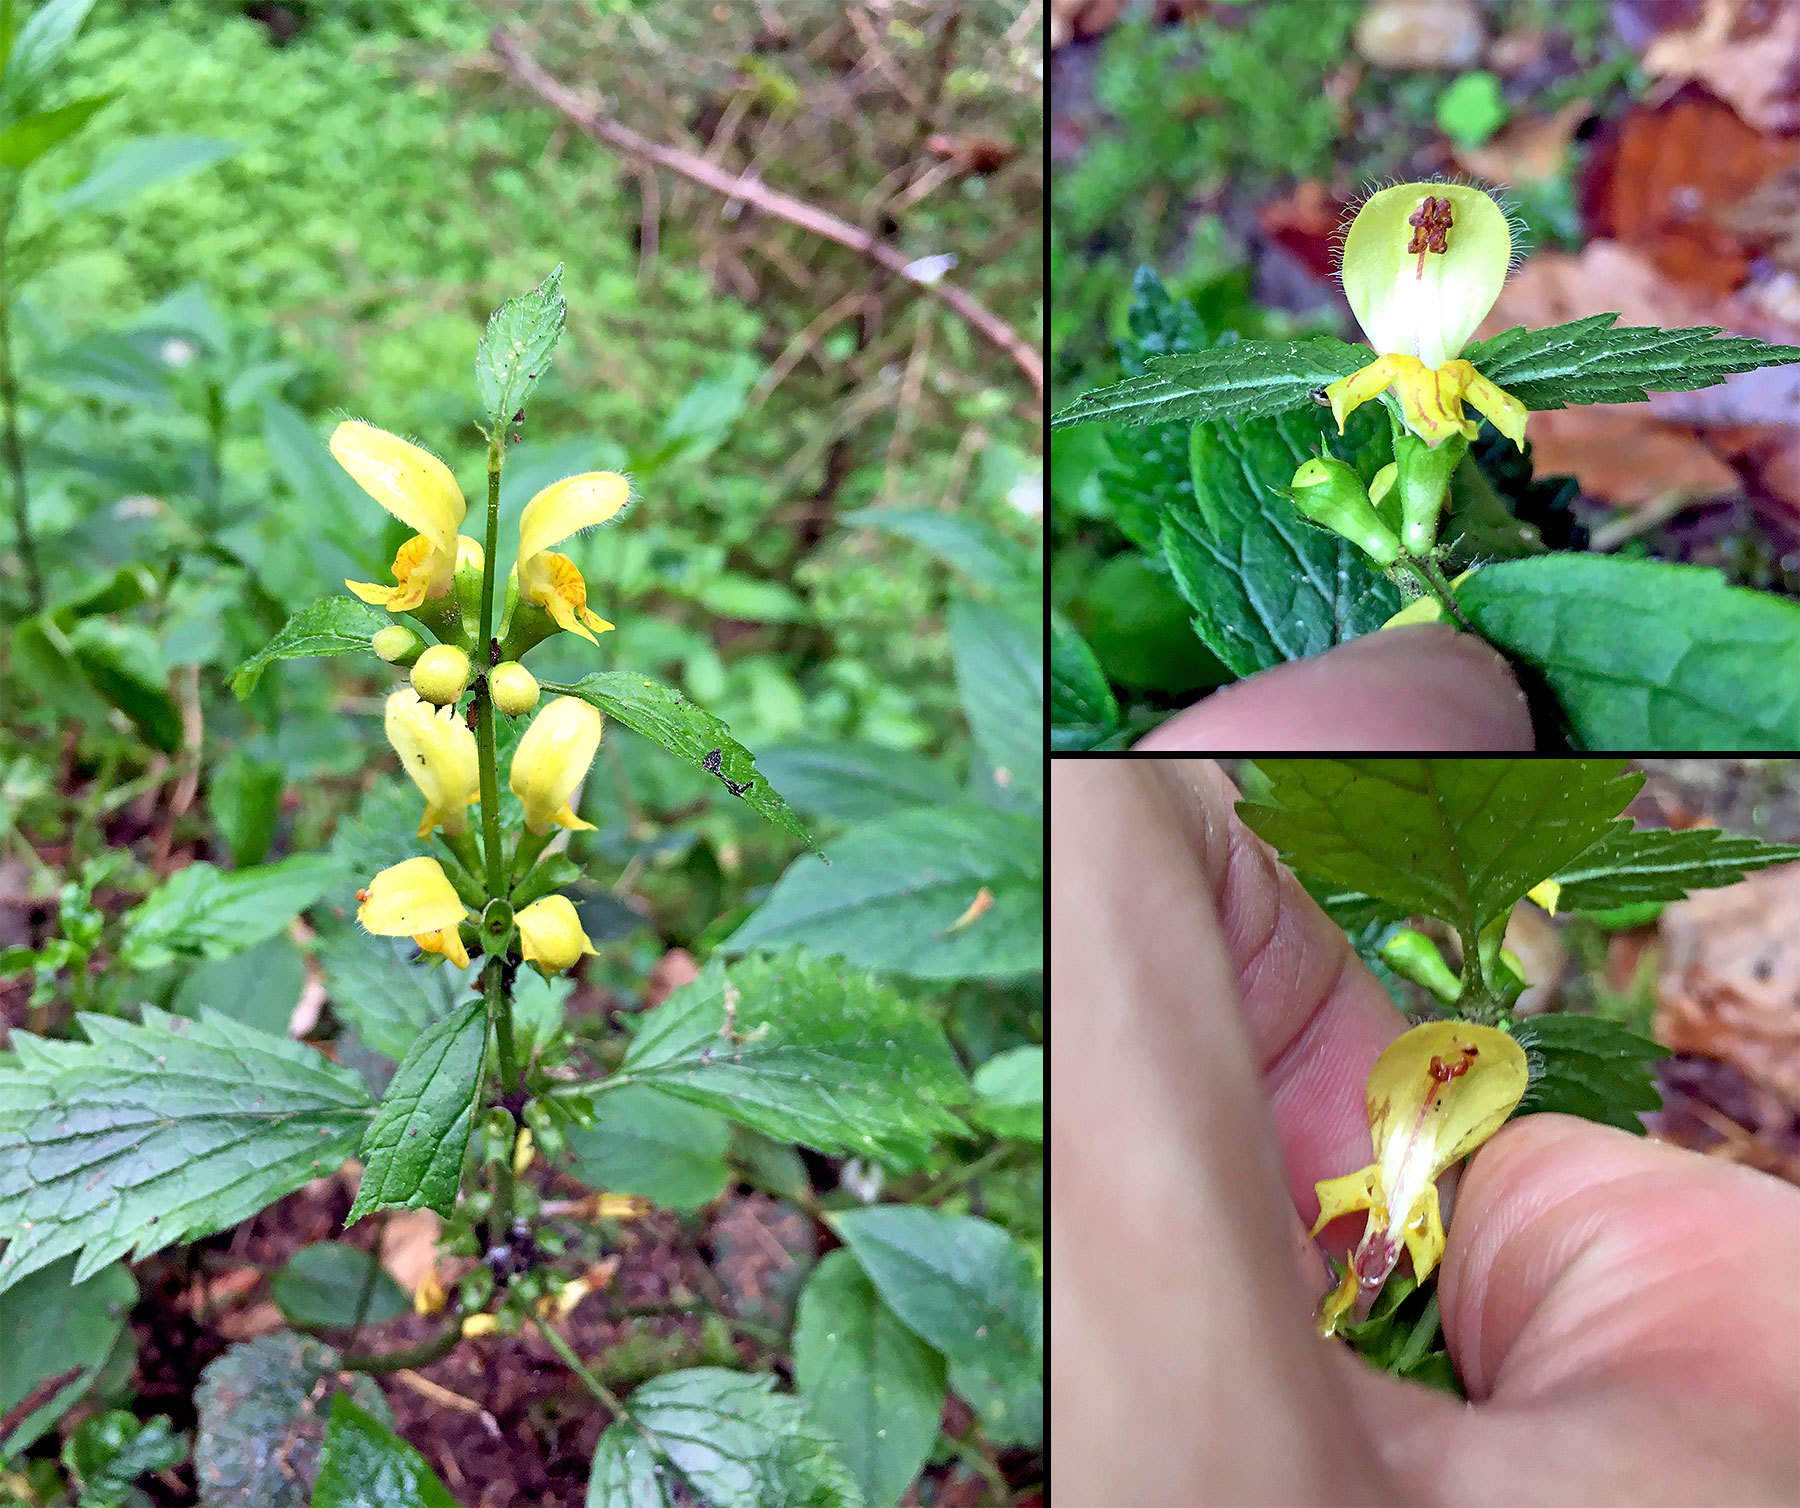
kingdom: Plantae
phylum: Tracheophyta
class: Magnoliopsida
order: Lamiales
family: Lamiaceae
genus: Lamium
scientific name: Lamium galeobdolon
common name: Yellow archangel
